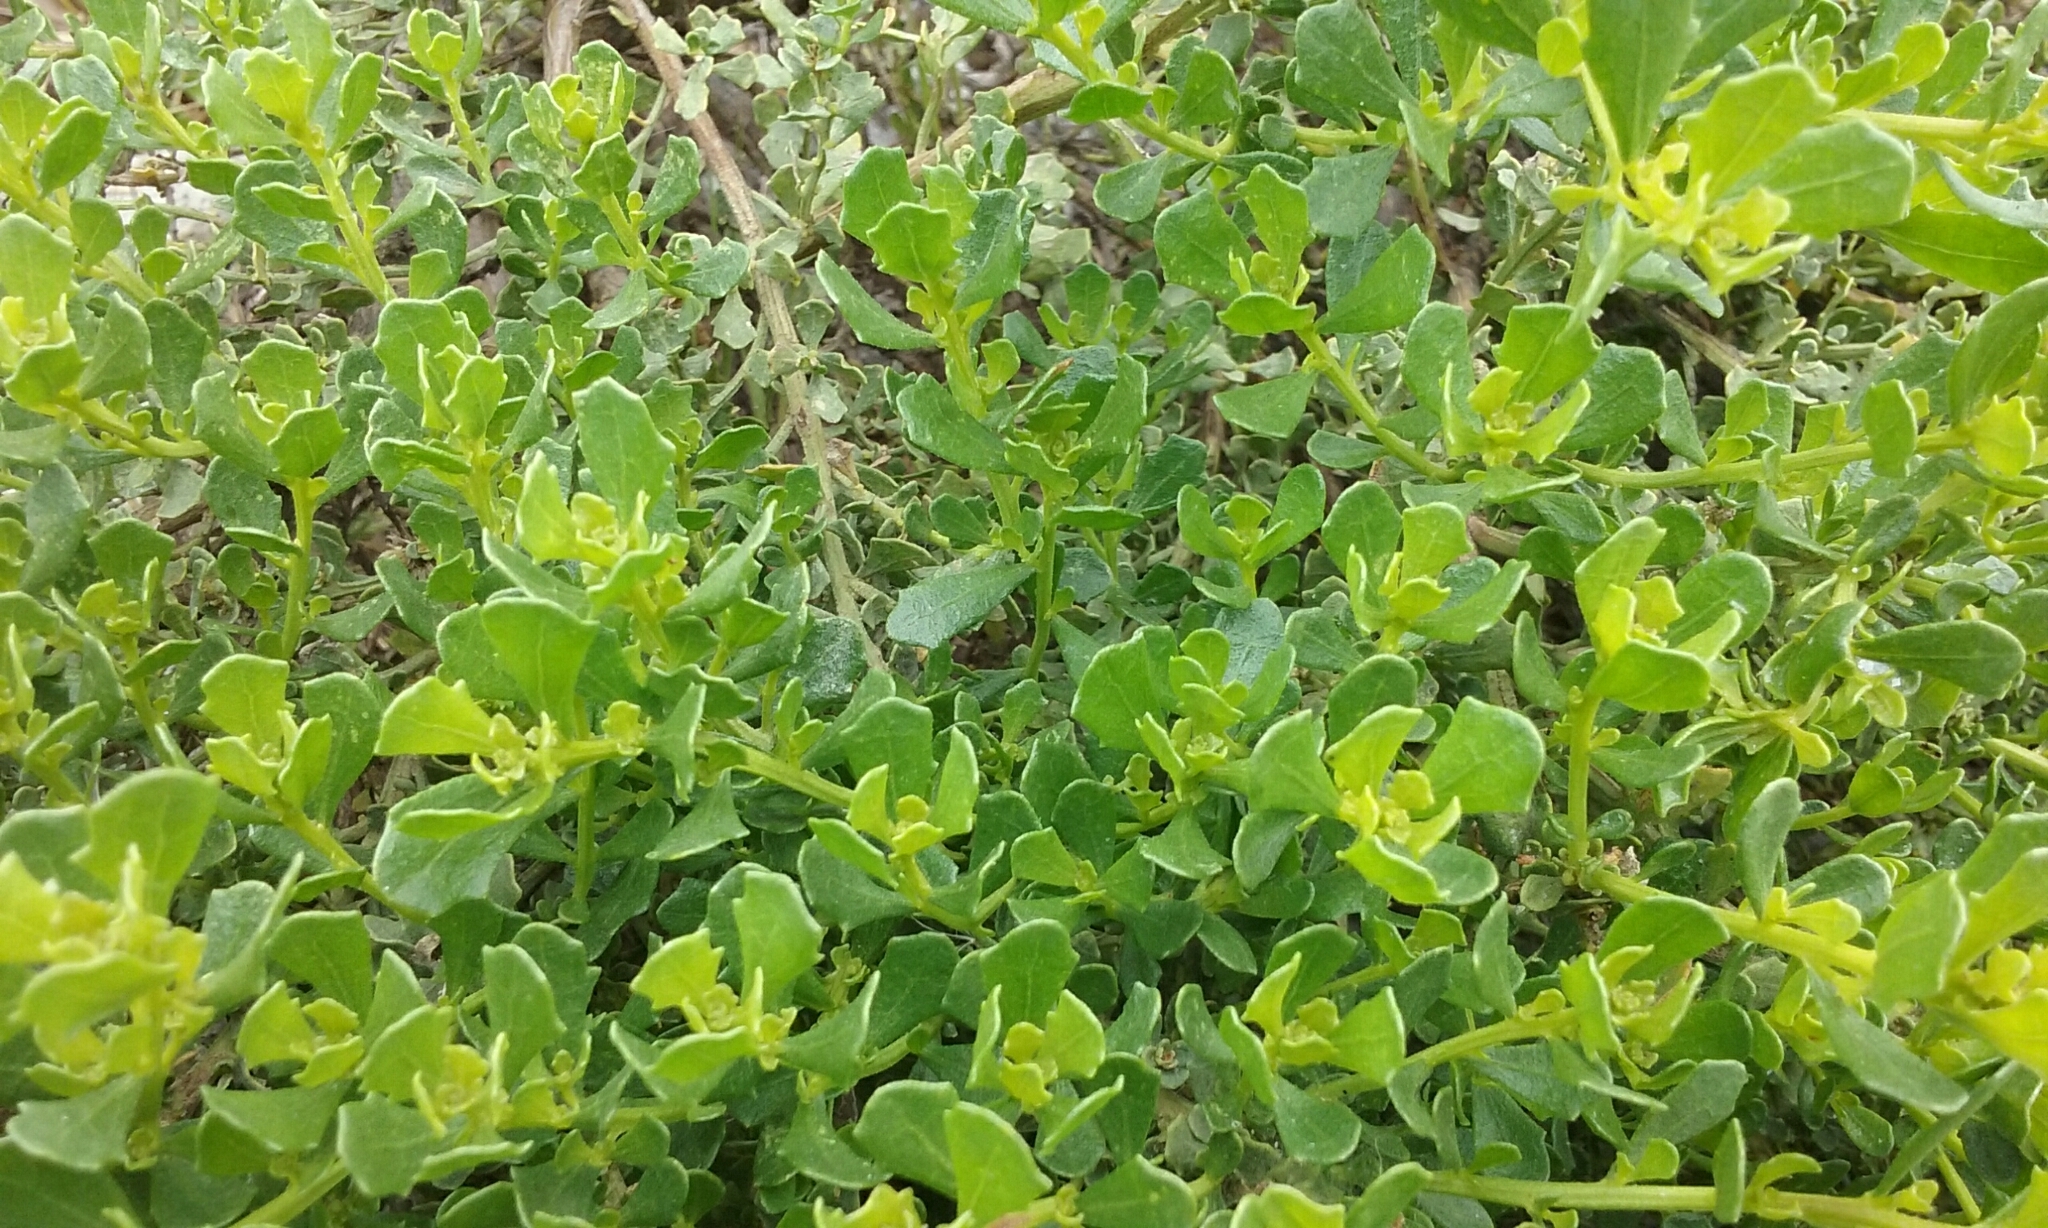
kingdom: Plantae
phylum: Tracheophyta
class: Magnoliopsida
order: Asterales
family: Asteraceae
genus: Baccharis
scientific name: Baccharis pilularis
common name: Coyotebrush
